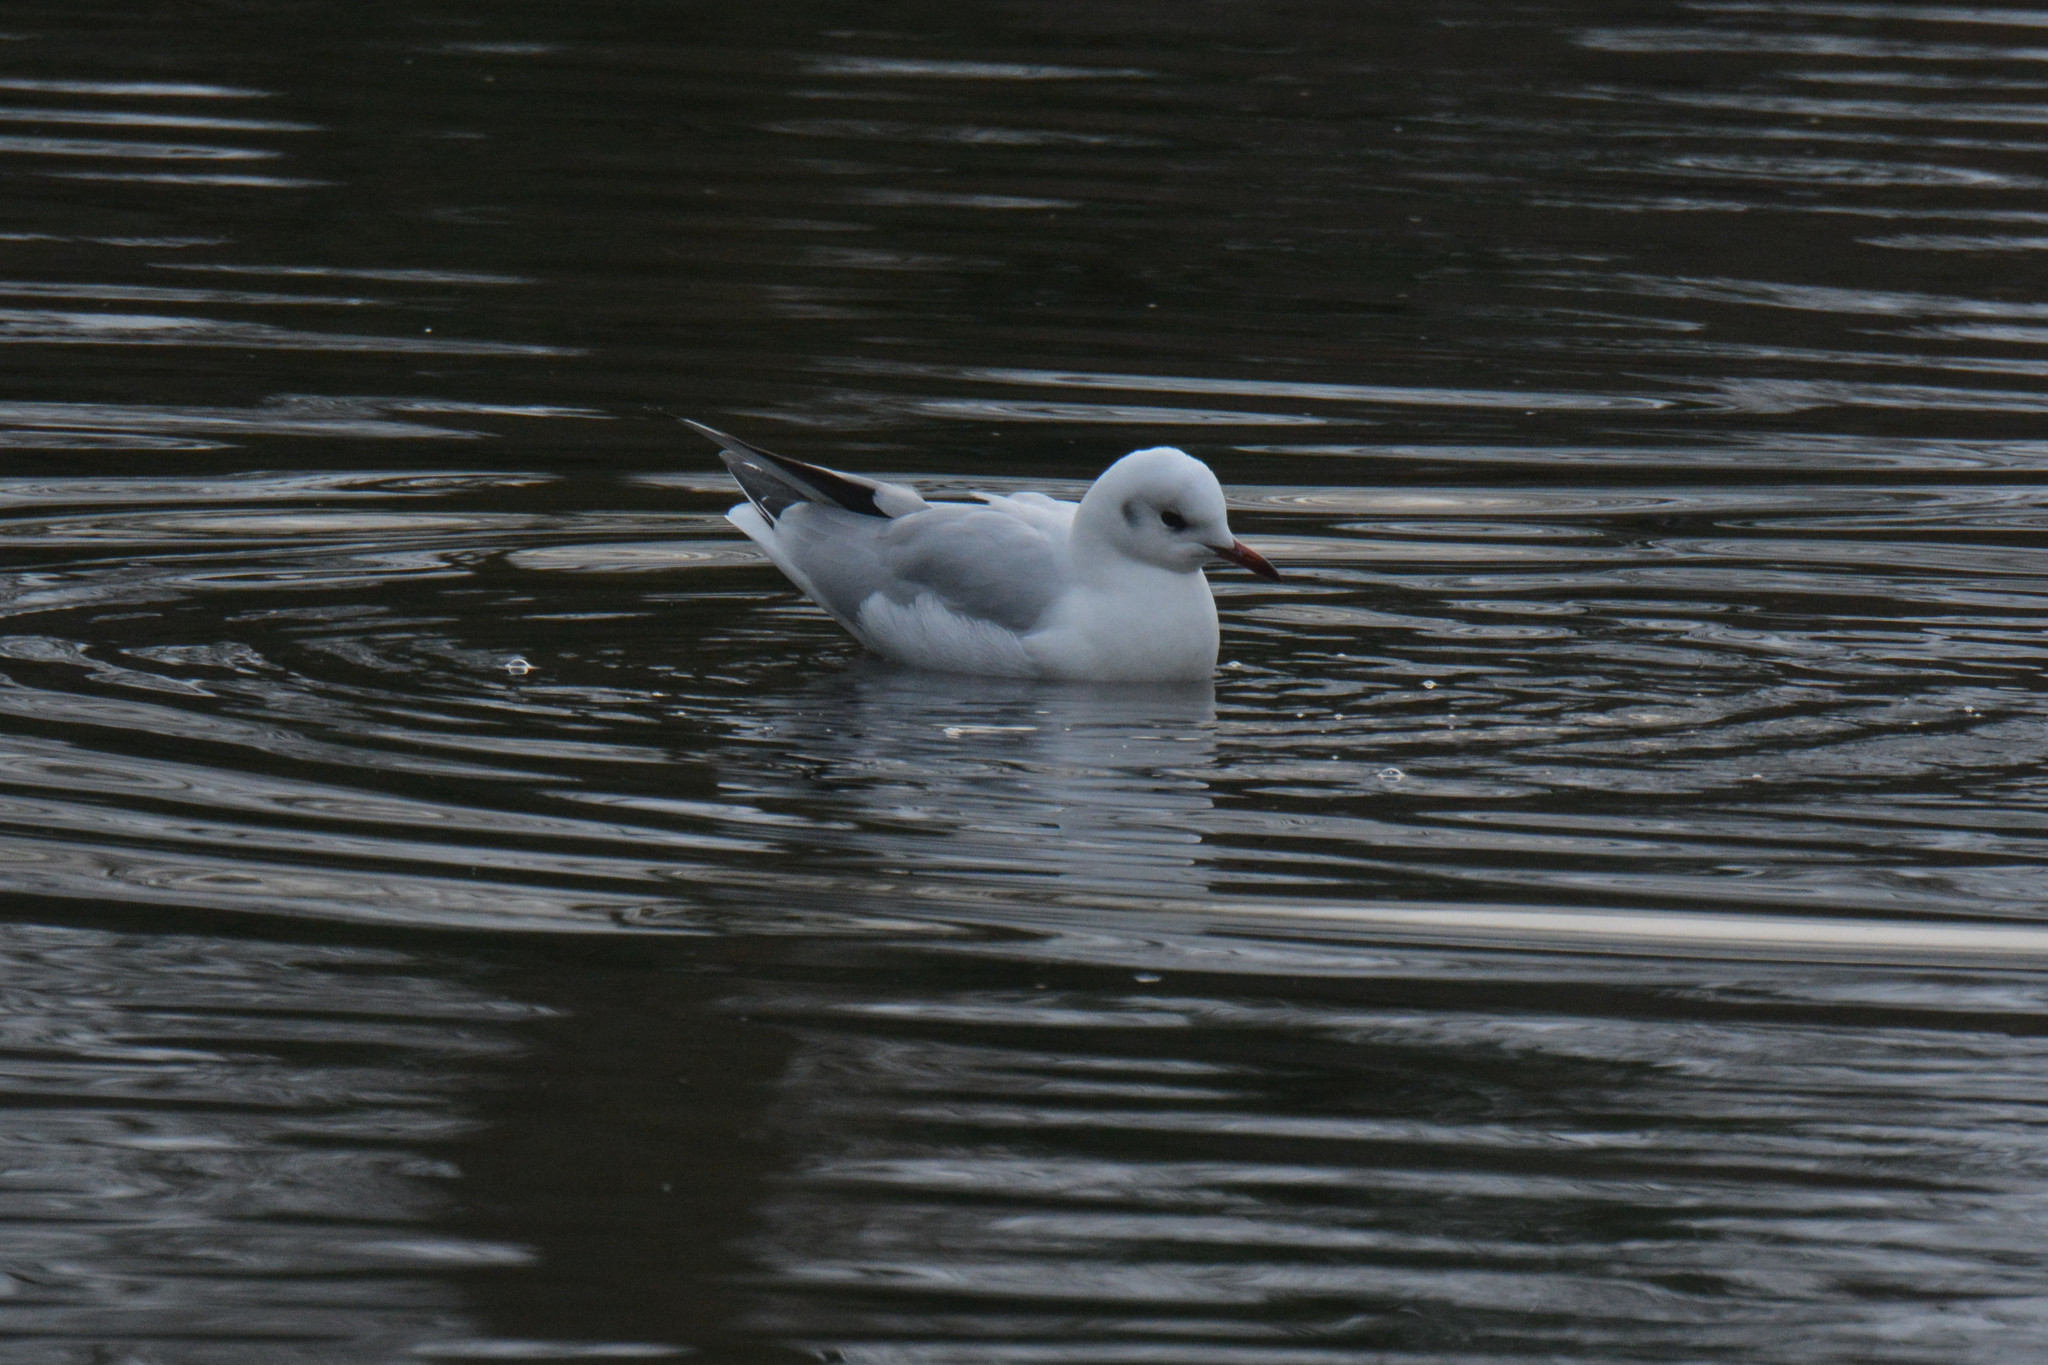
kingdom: Animalia
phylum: Chordata
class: Aves
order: Charadriiformes
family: Laridae
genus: Chroicocephalus
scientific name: Chroicocephalus ridibundus
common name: Black-headed gull
